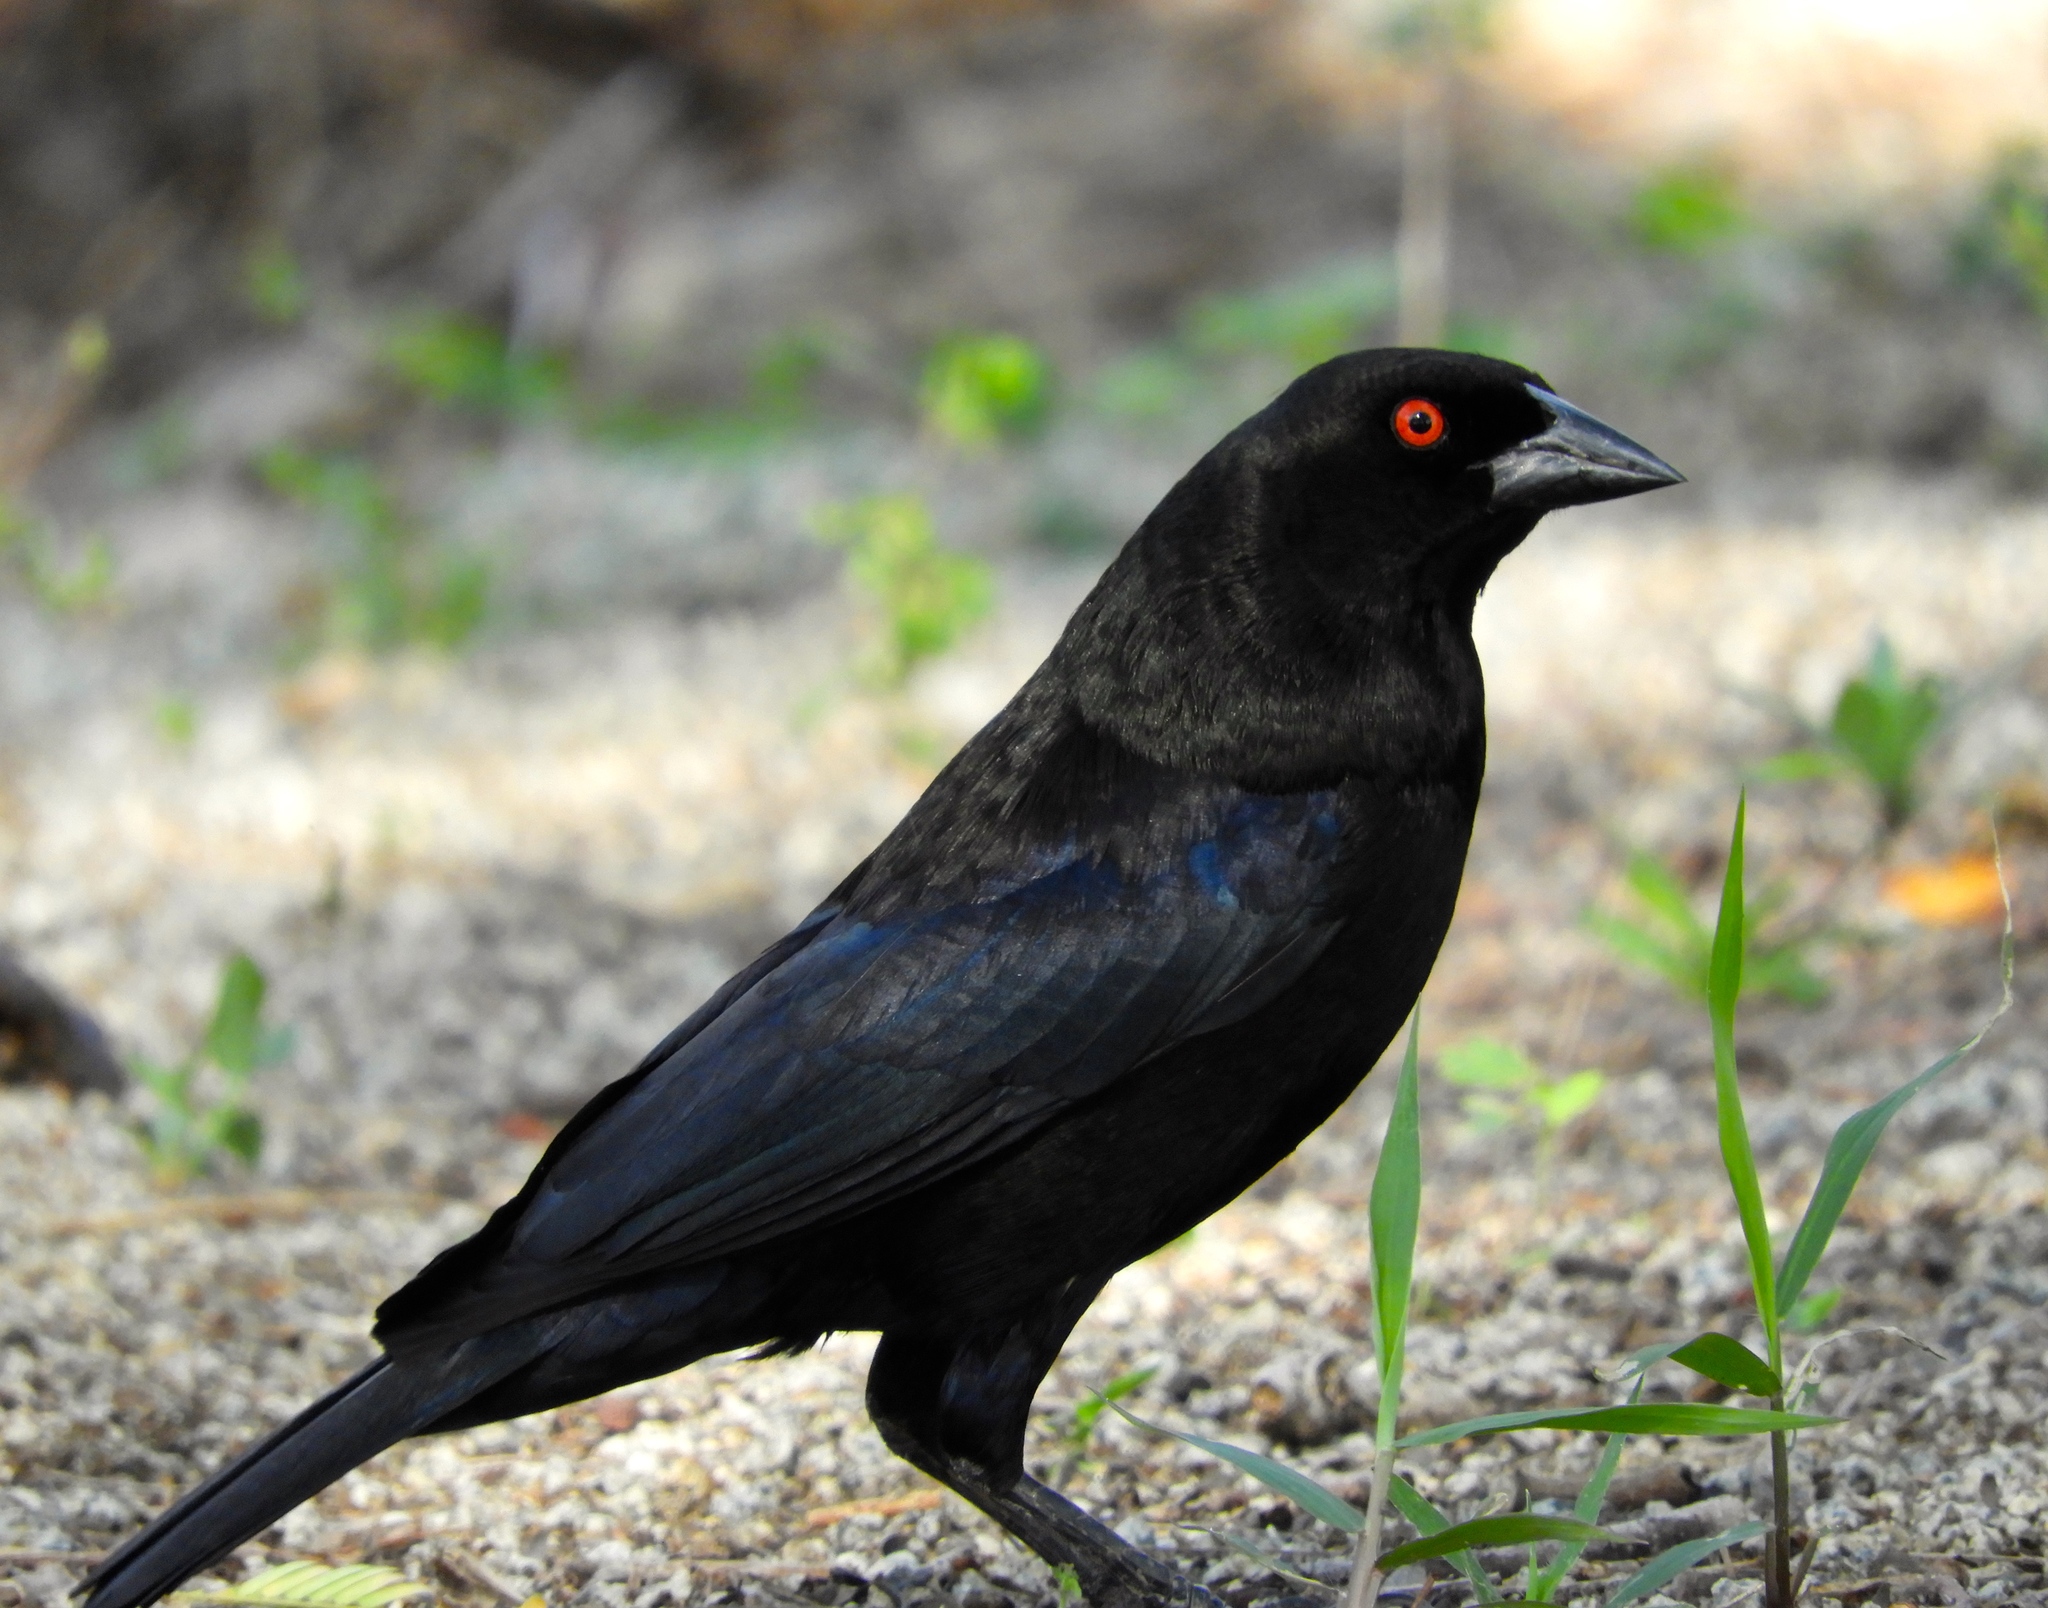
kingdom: Animalia
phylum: Chordata
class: Aves
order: Passeriformes
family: Icteridae
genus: Molothrus
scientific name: Molothrus aeneus
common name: Bronzed cowbird
